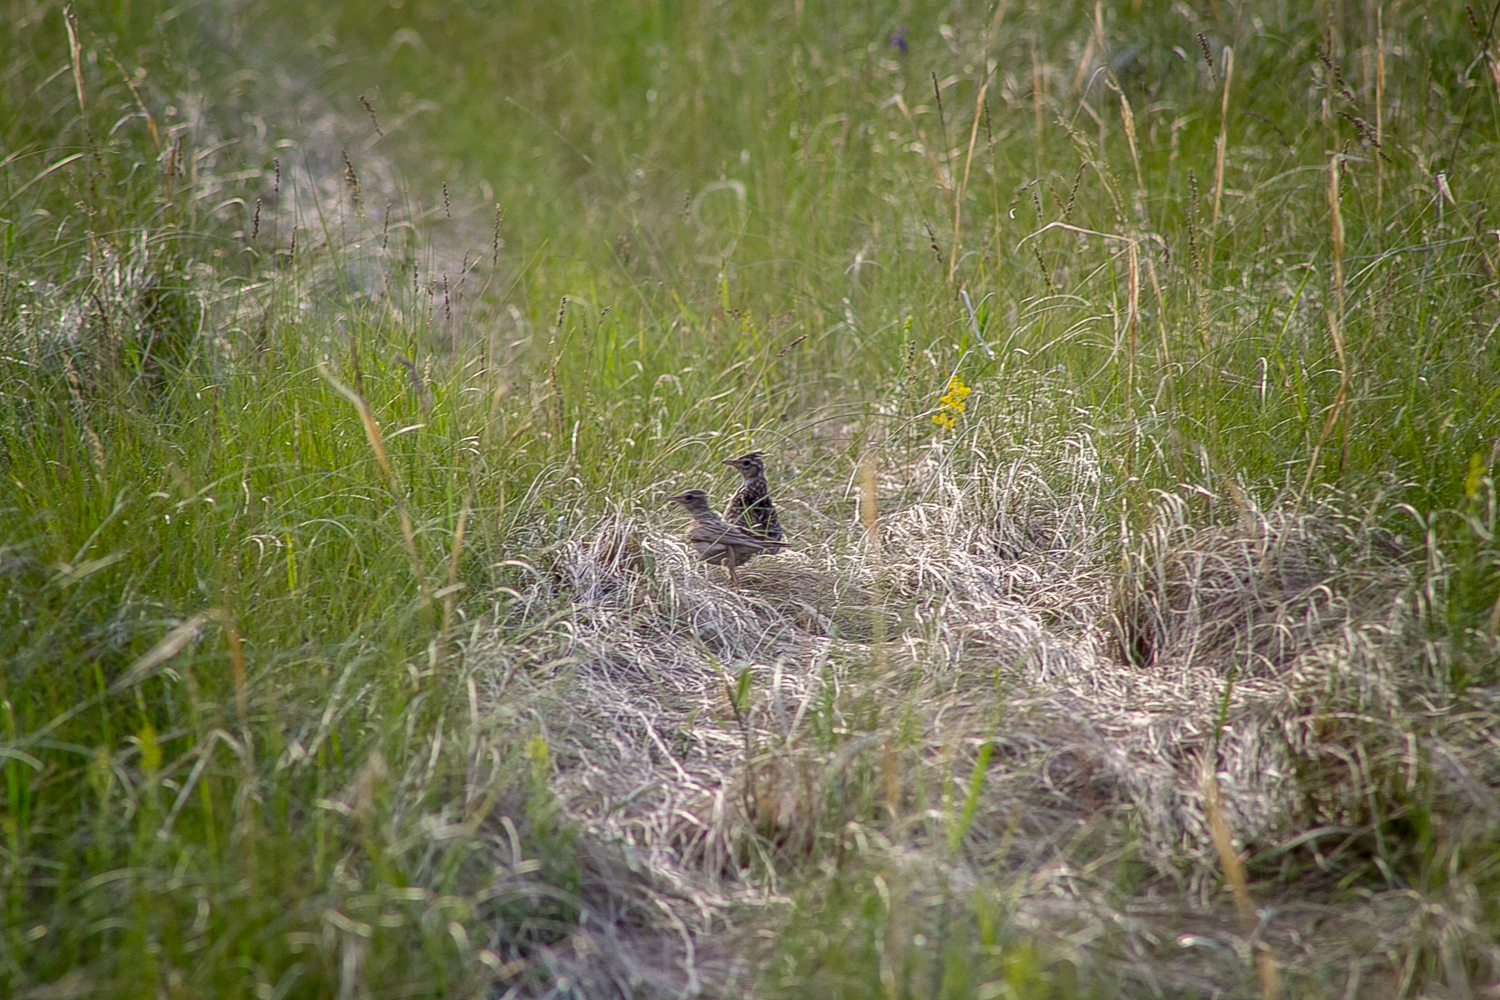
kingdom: Animalia
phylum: Chordata
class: Aves
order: Passeriformes
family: Alaudidae
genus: Alauda
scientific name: Alauda arvensis
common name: Eurasian skylark
